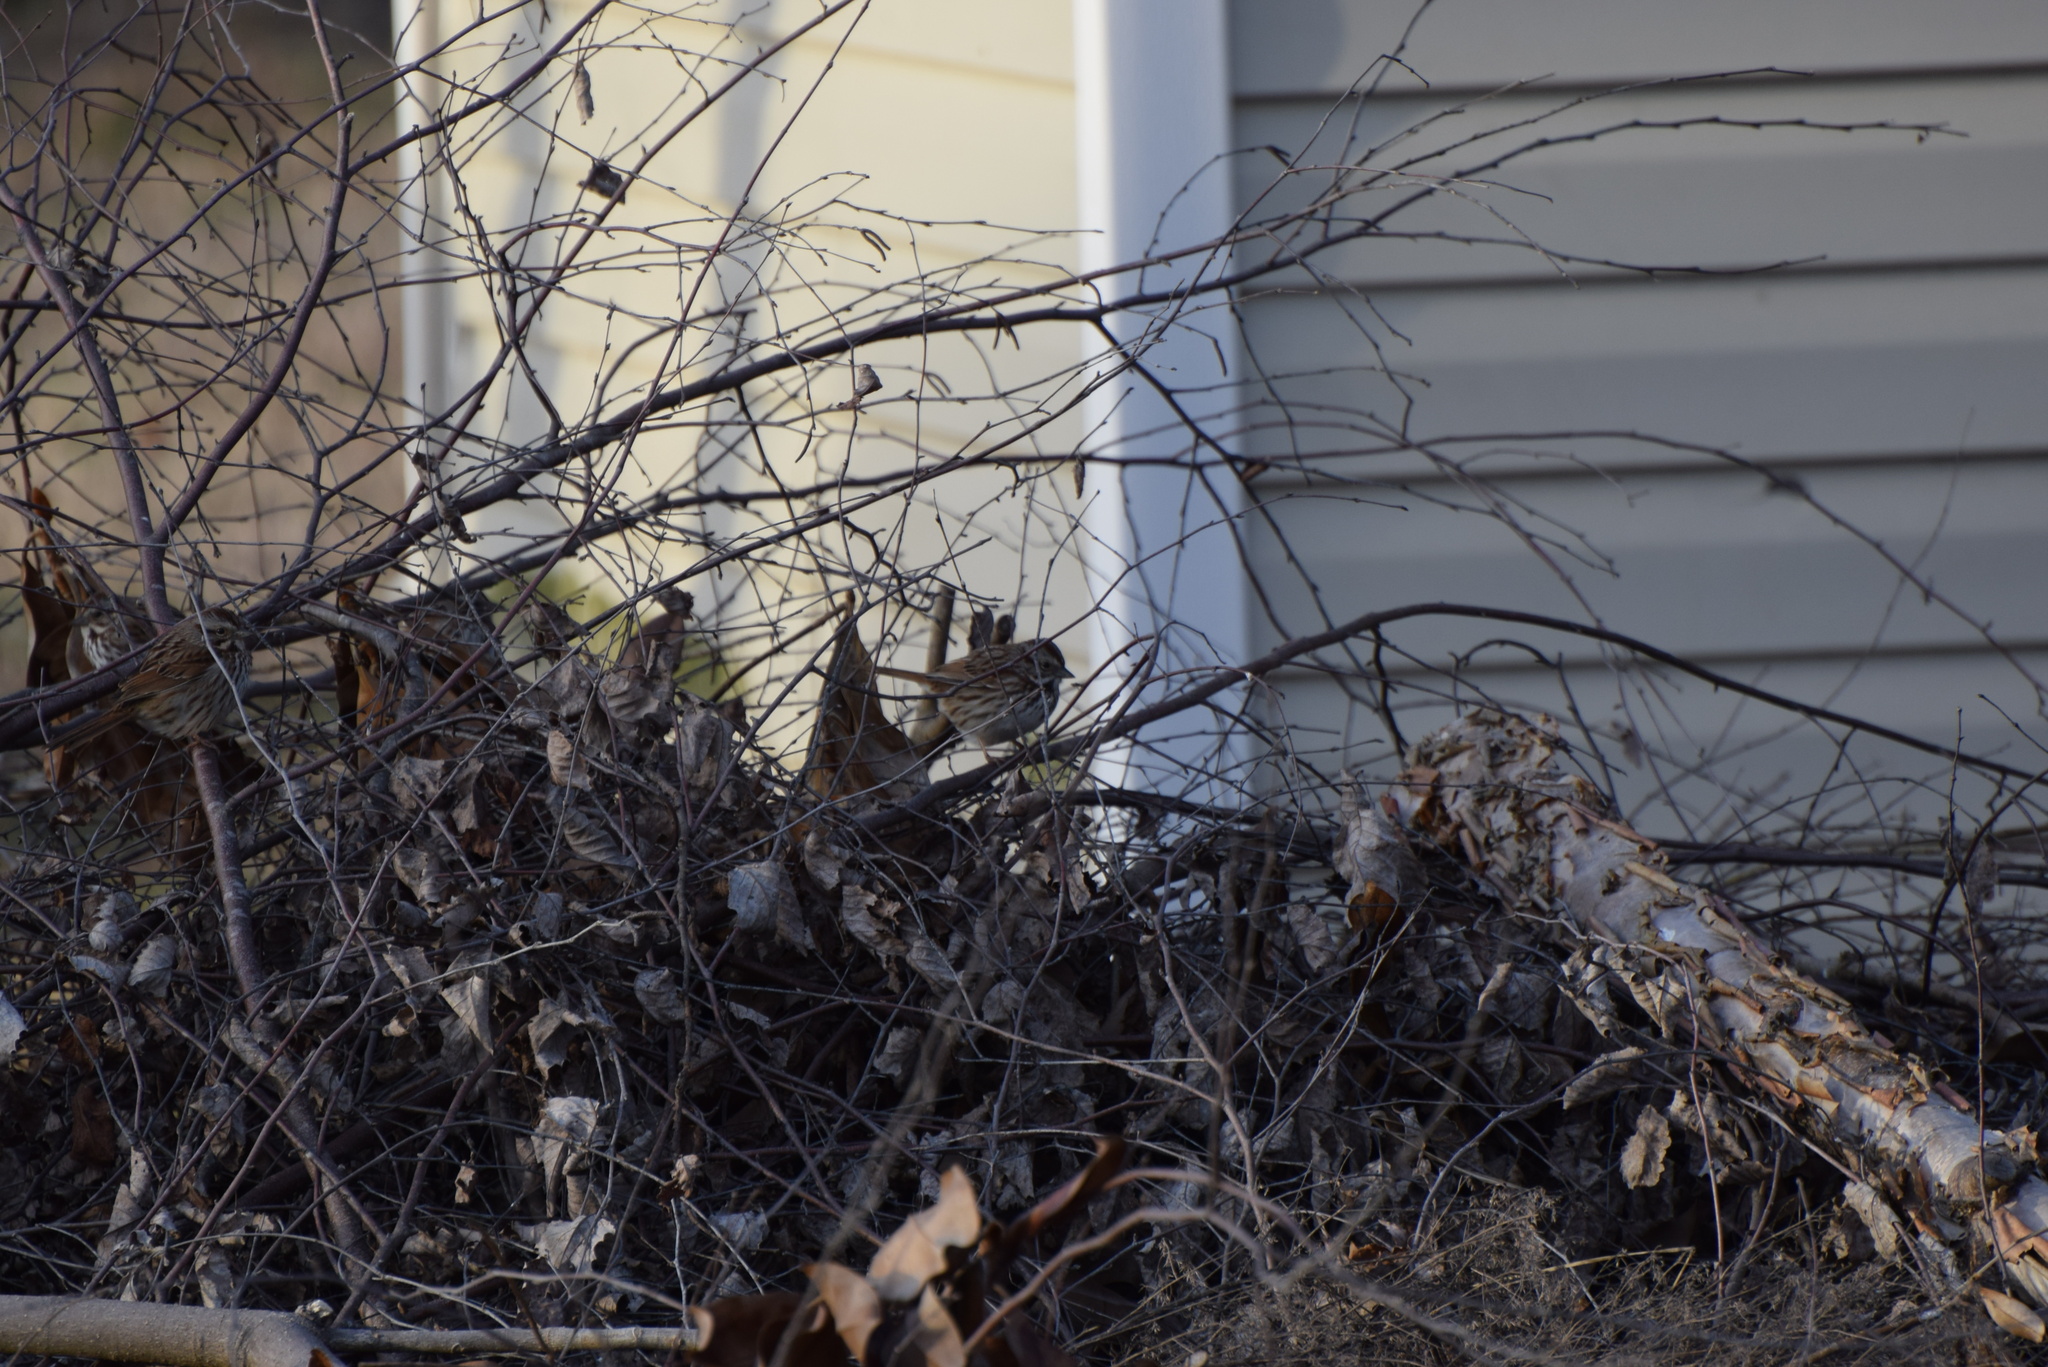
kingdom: Animalia
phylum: Chordata
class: Aves
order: Passeriformes
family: Passerellidae
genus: Melospiza
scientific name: Melospiza melodia
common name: Song sparrow
